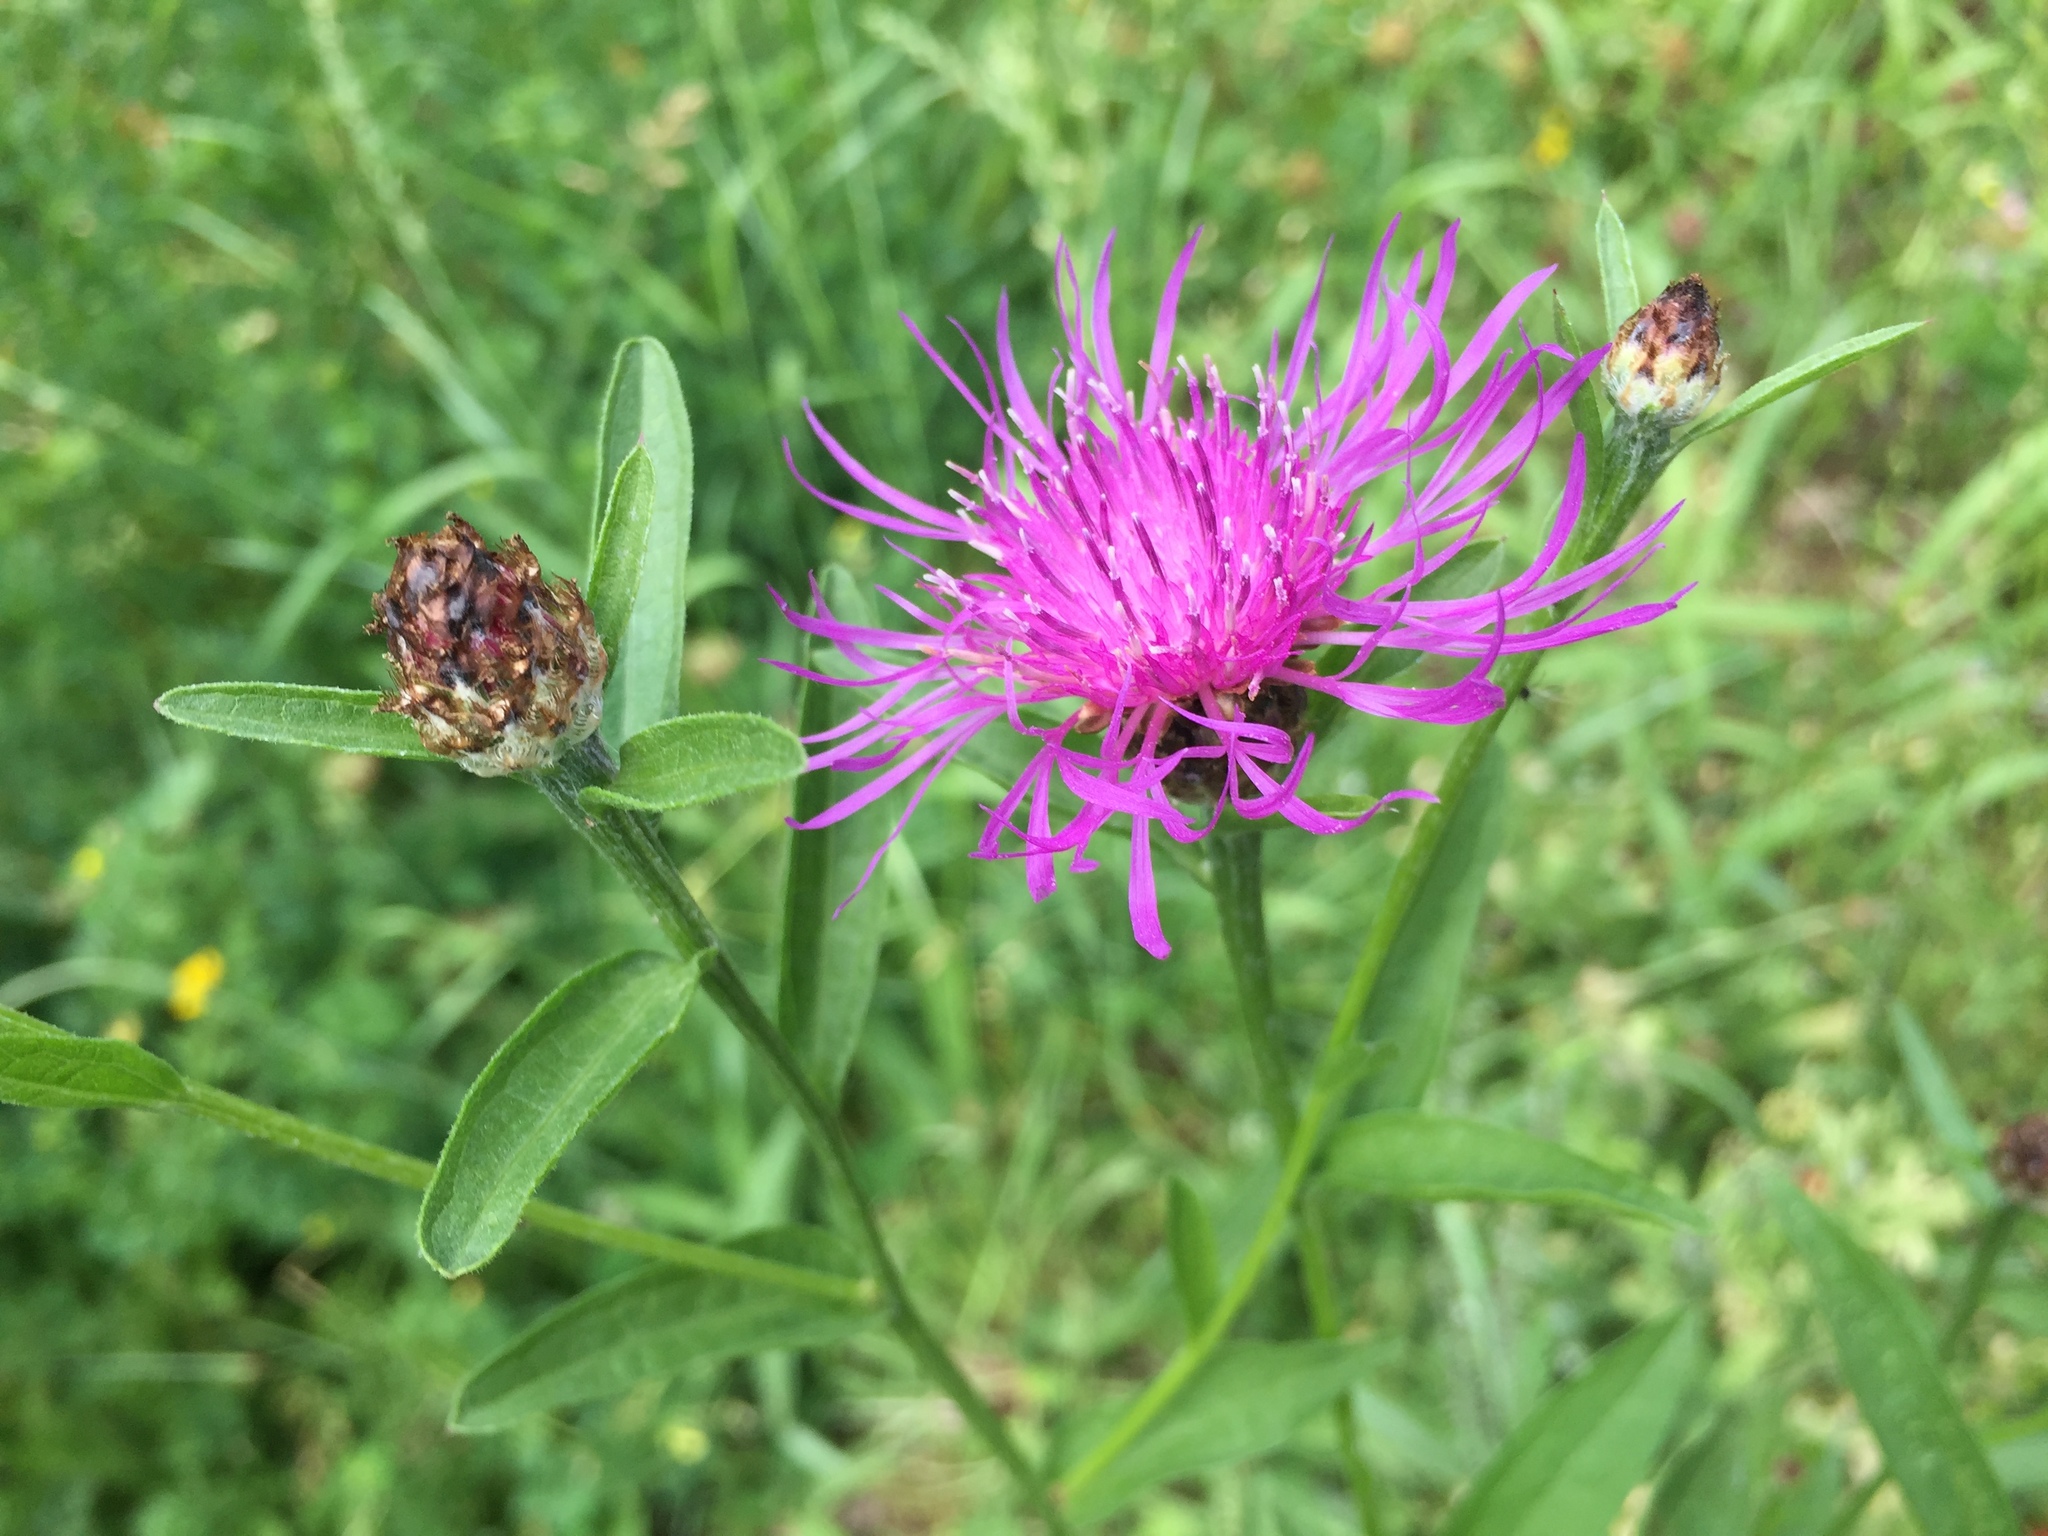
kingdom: Plantae
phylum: Tracheophyta
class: Magnoliopsida
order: Asterales
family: Asteraceae
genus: Centaurea
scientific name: Centaurea jacea
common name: Brown knapweed
